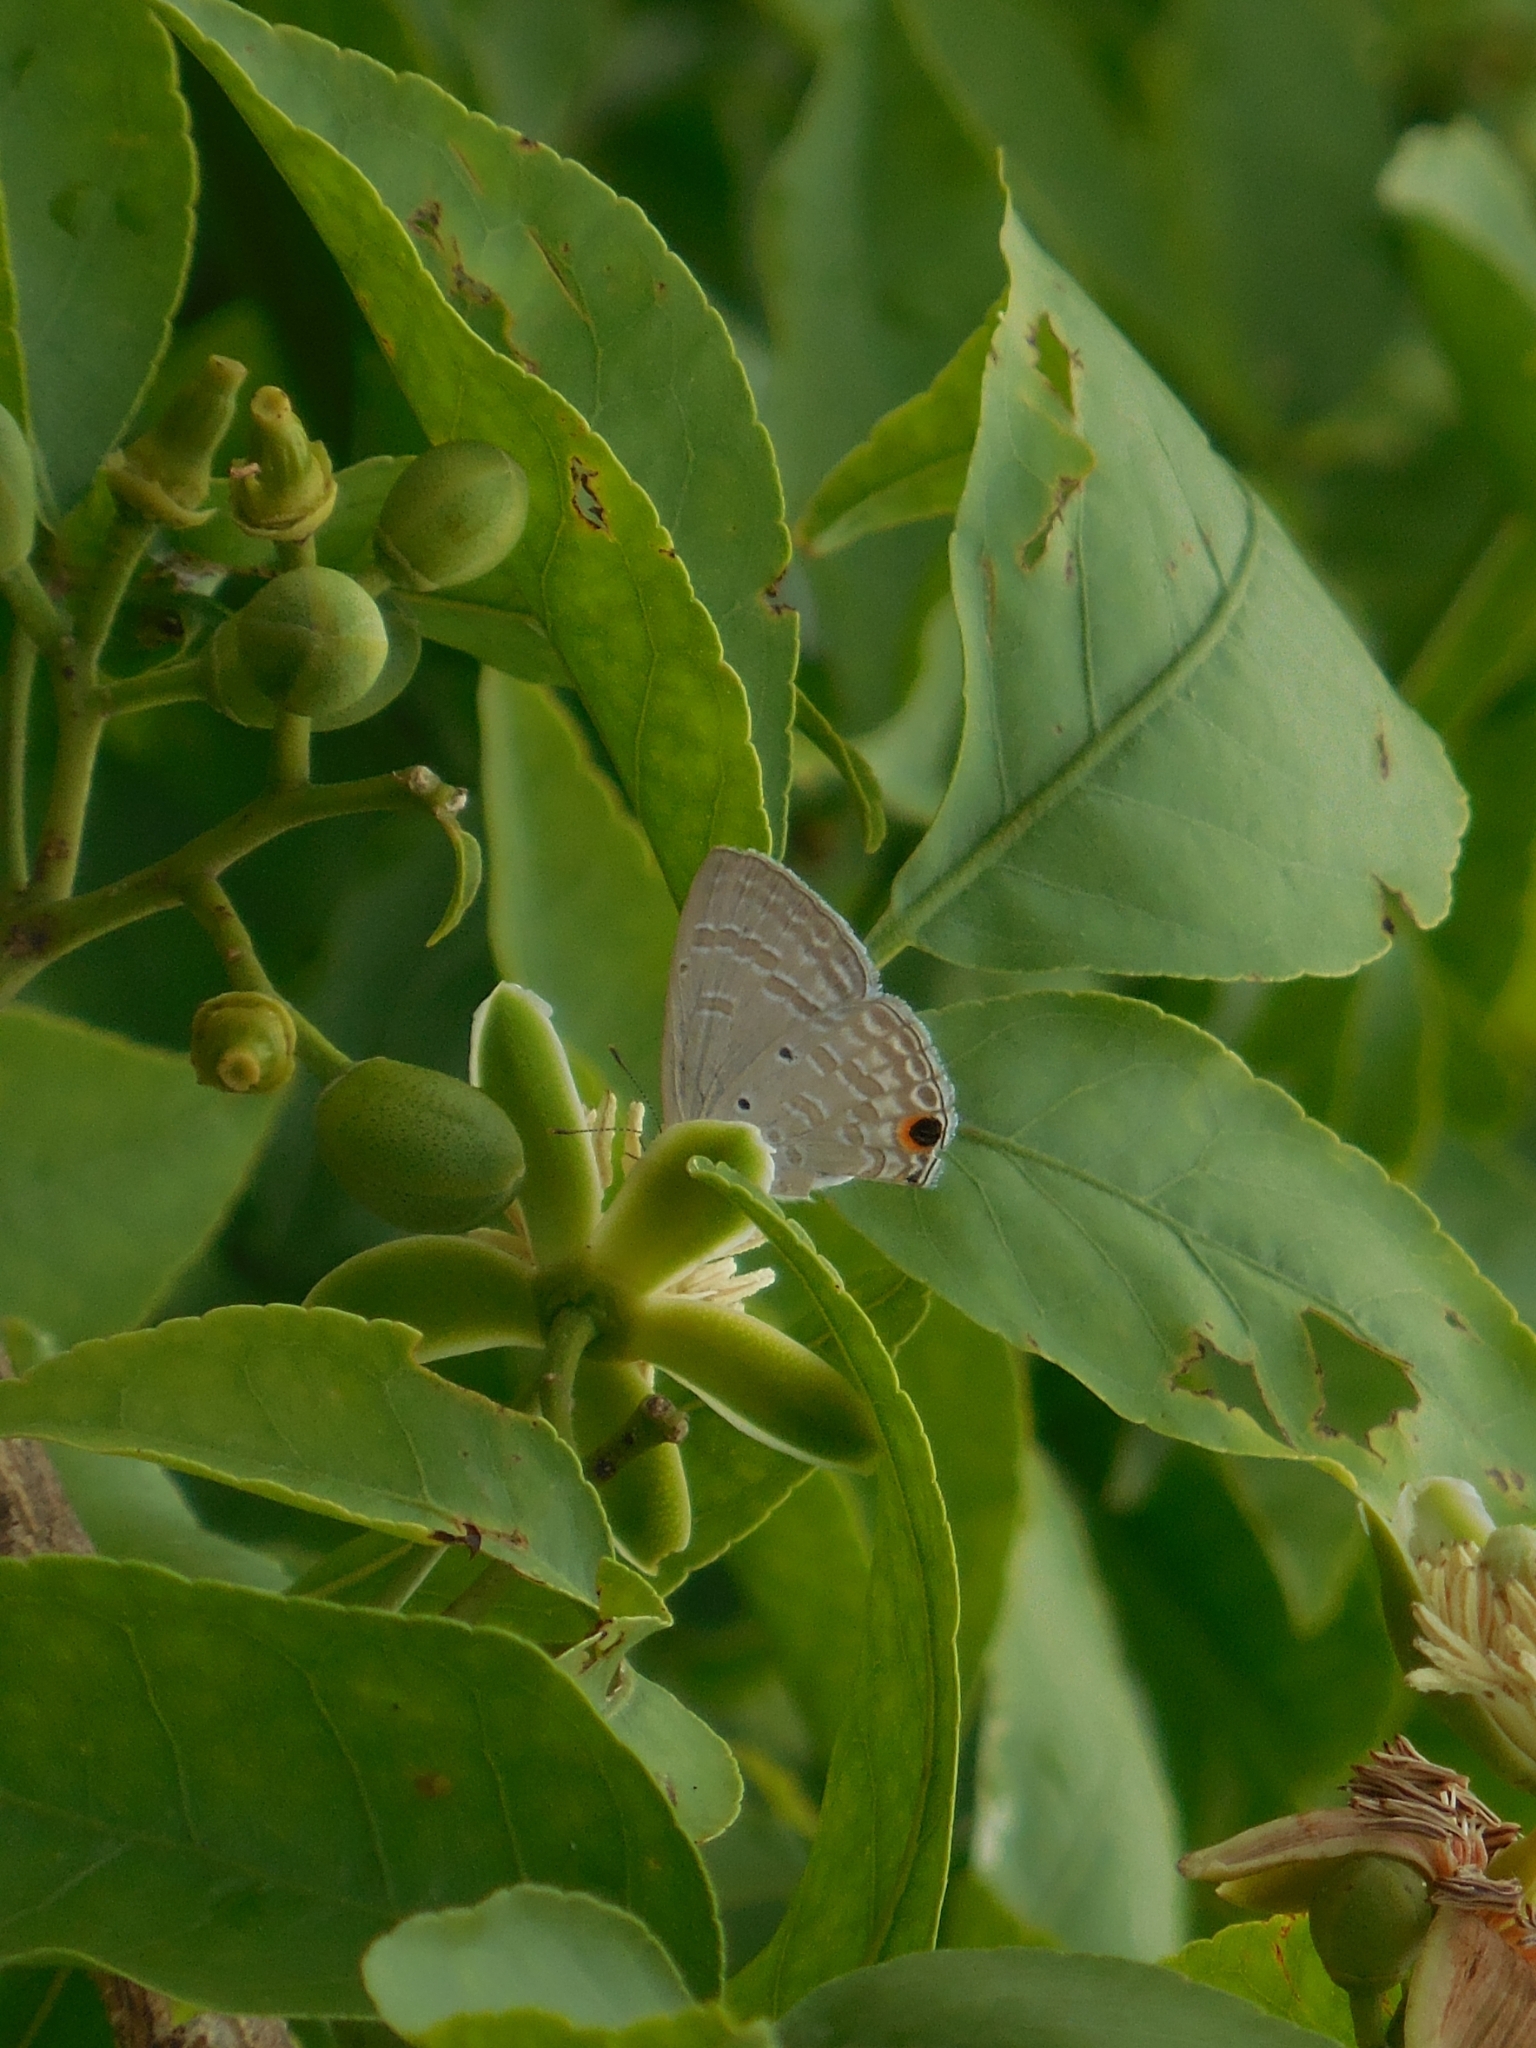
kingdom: Animalia
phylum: Arthropoda
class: Insecta
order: Lepidoptera
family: Lycaenidae
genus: Catochrysops
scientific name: Catochrysops strabo
